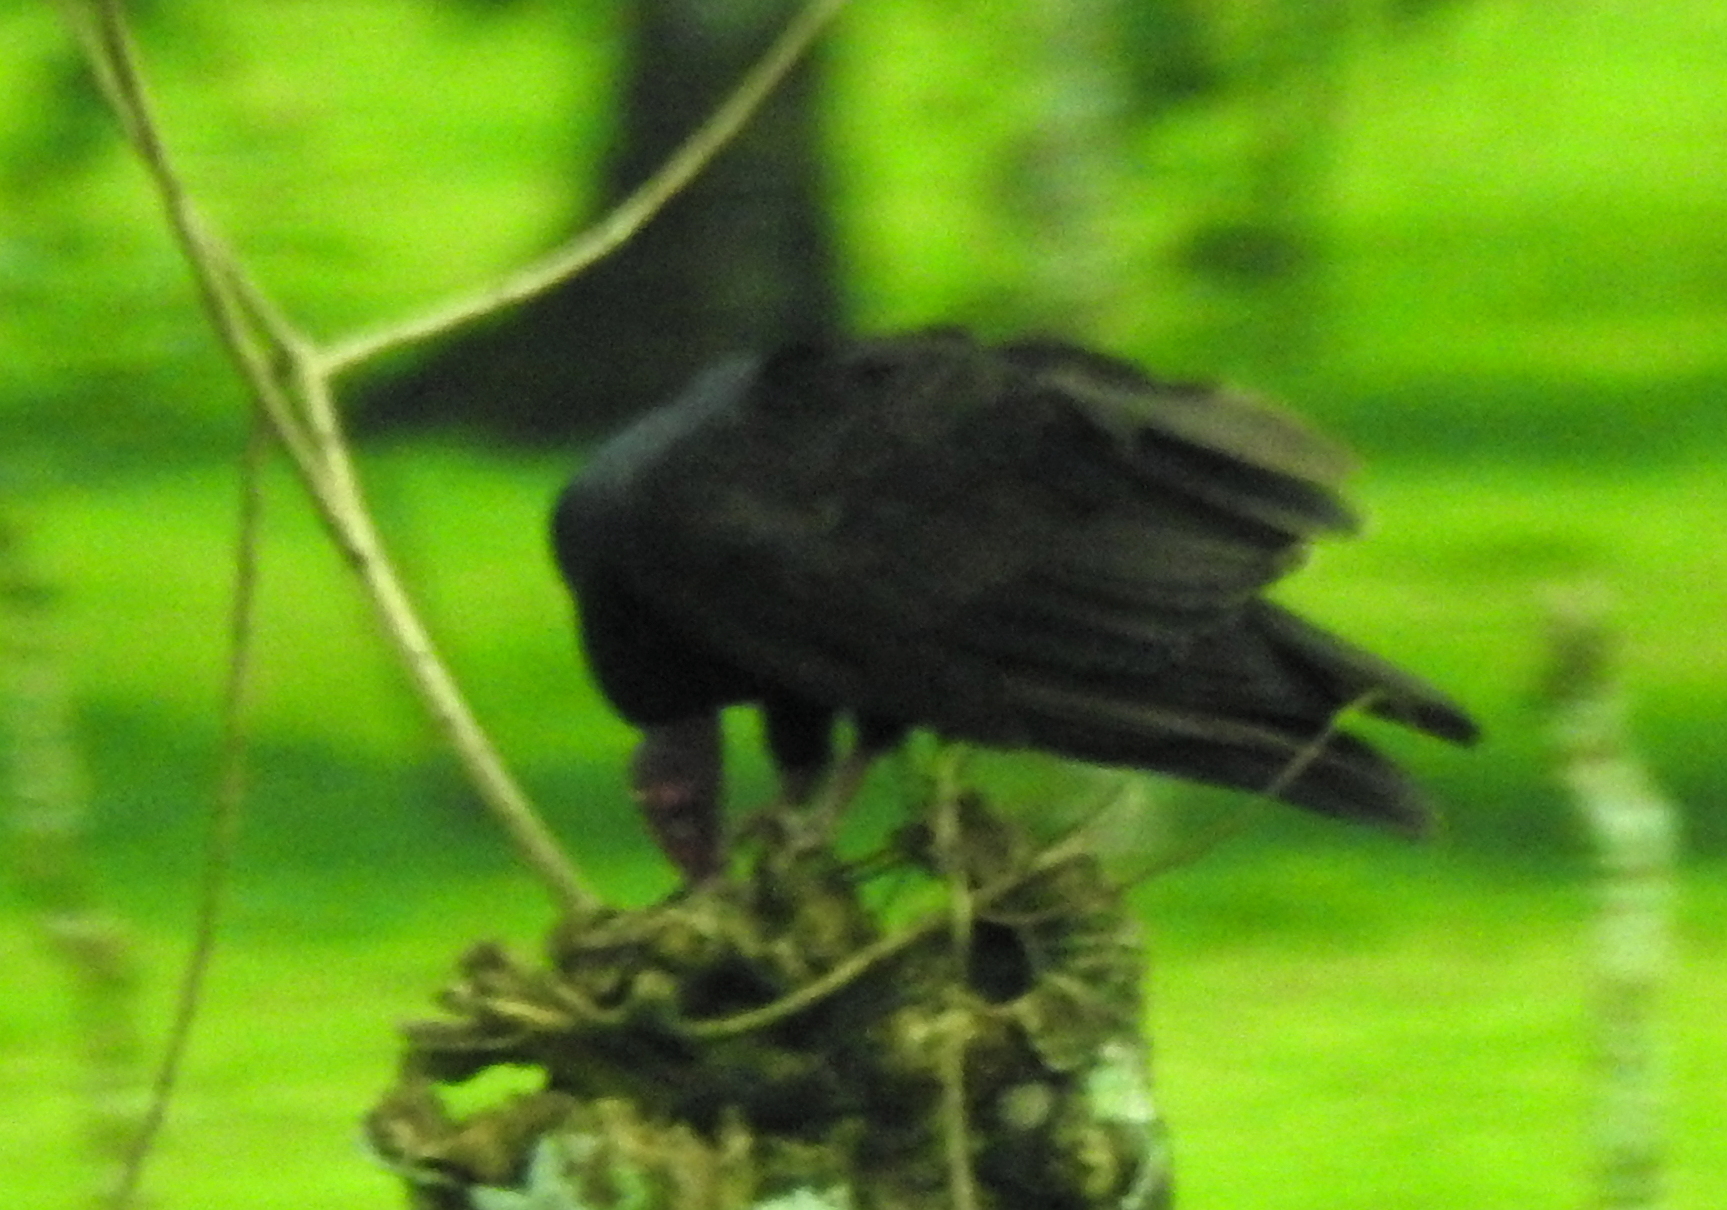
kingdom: Animalia
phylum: Chordata
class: Aves
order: Accipitriformes
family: Cathartidae
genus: Cathartes
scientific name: Cathartes aura
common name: Turkey vulture
